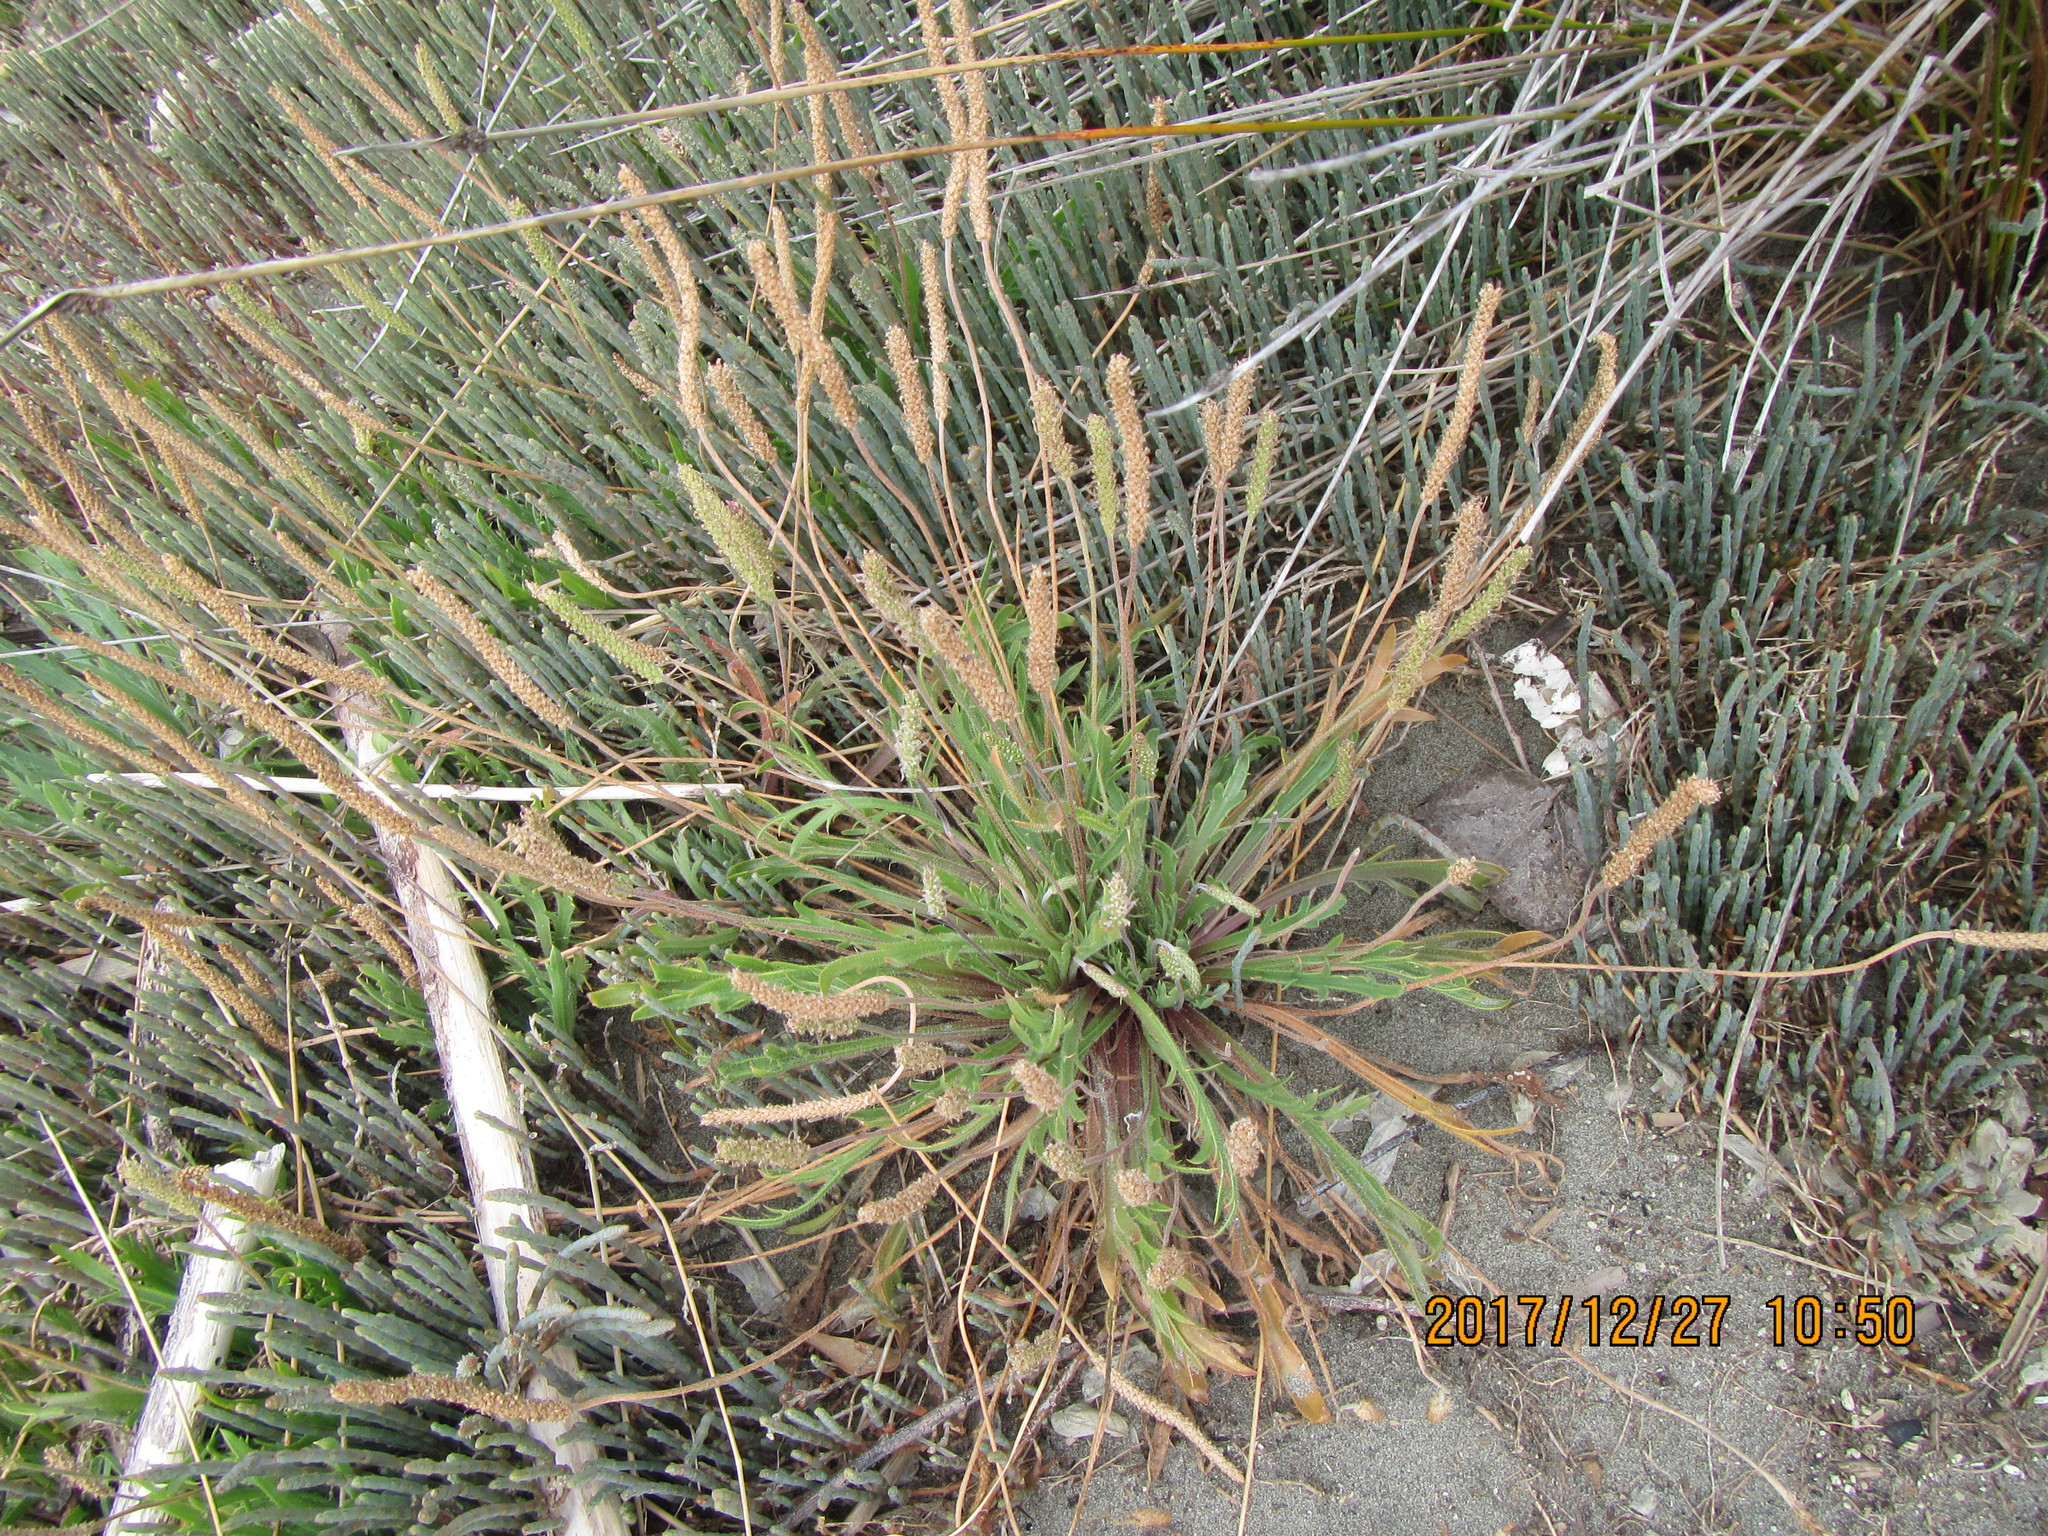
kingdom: Plantae
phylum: Tracheophyta
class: Magnoliopsida
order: Lamiales
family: Plantaginaceae
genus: Plantago
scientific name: Plantago coronopus
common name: Buck's-horn plantain
